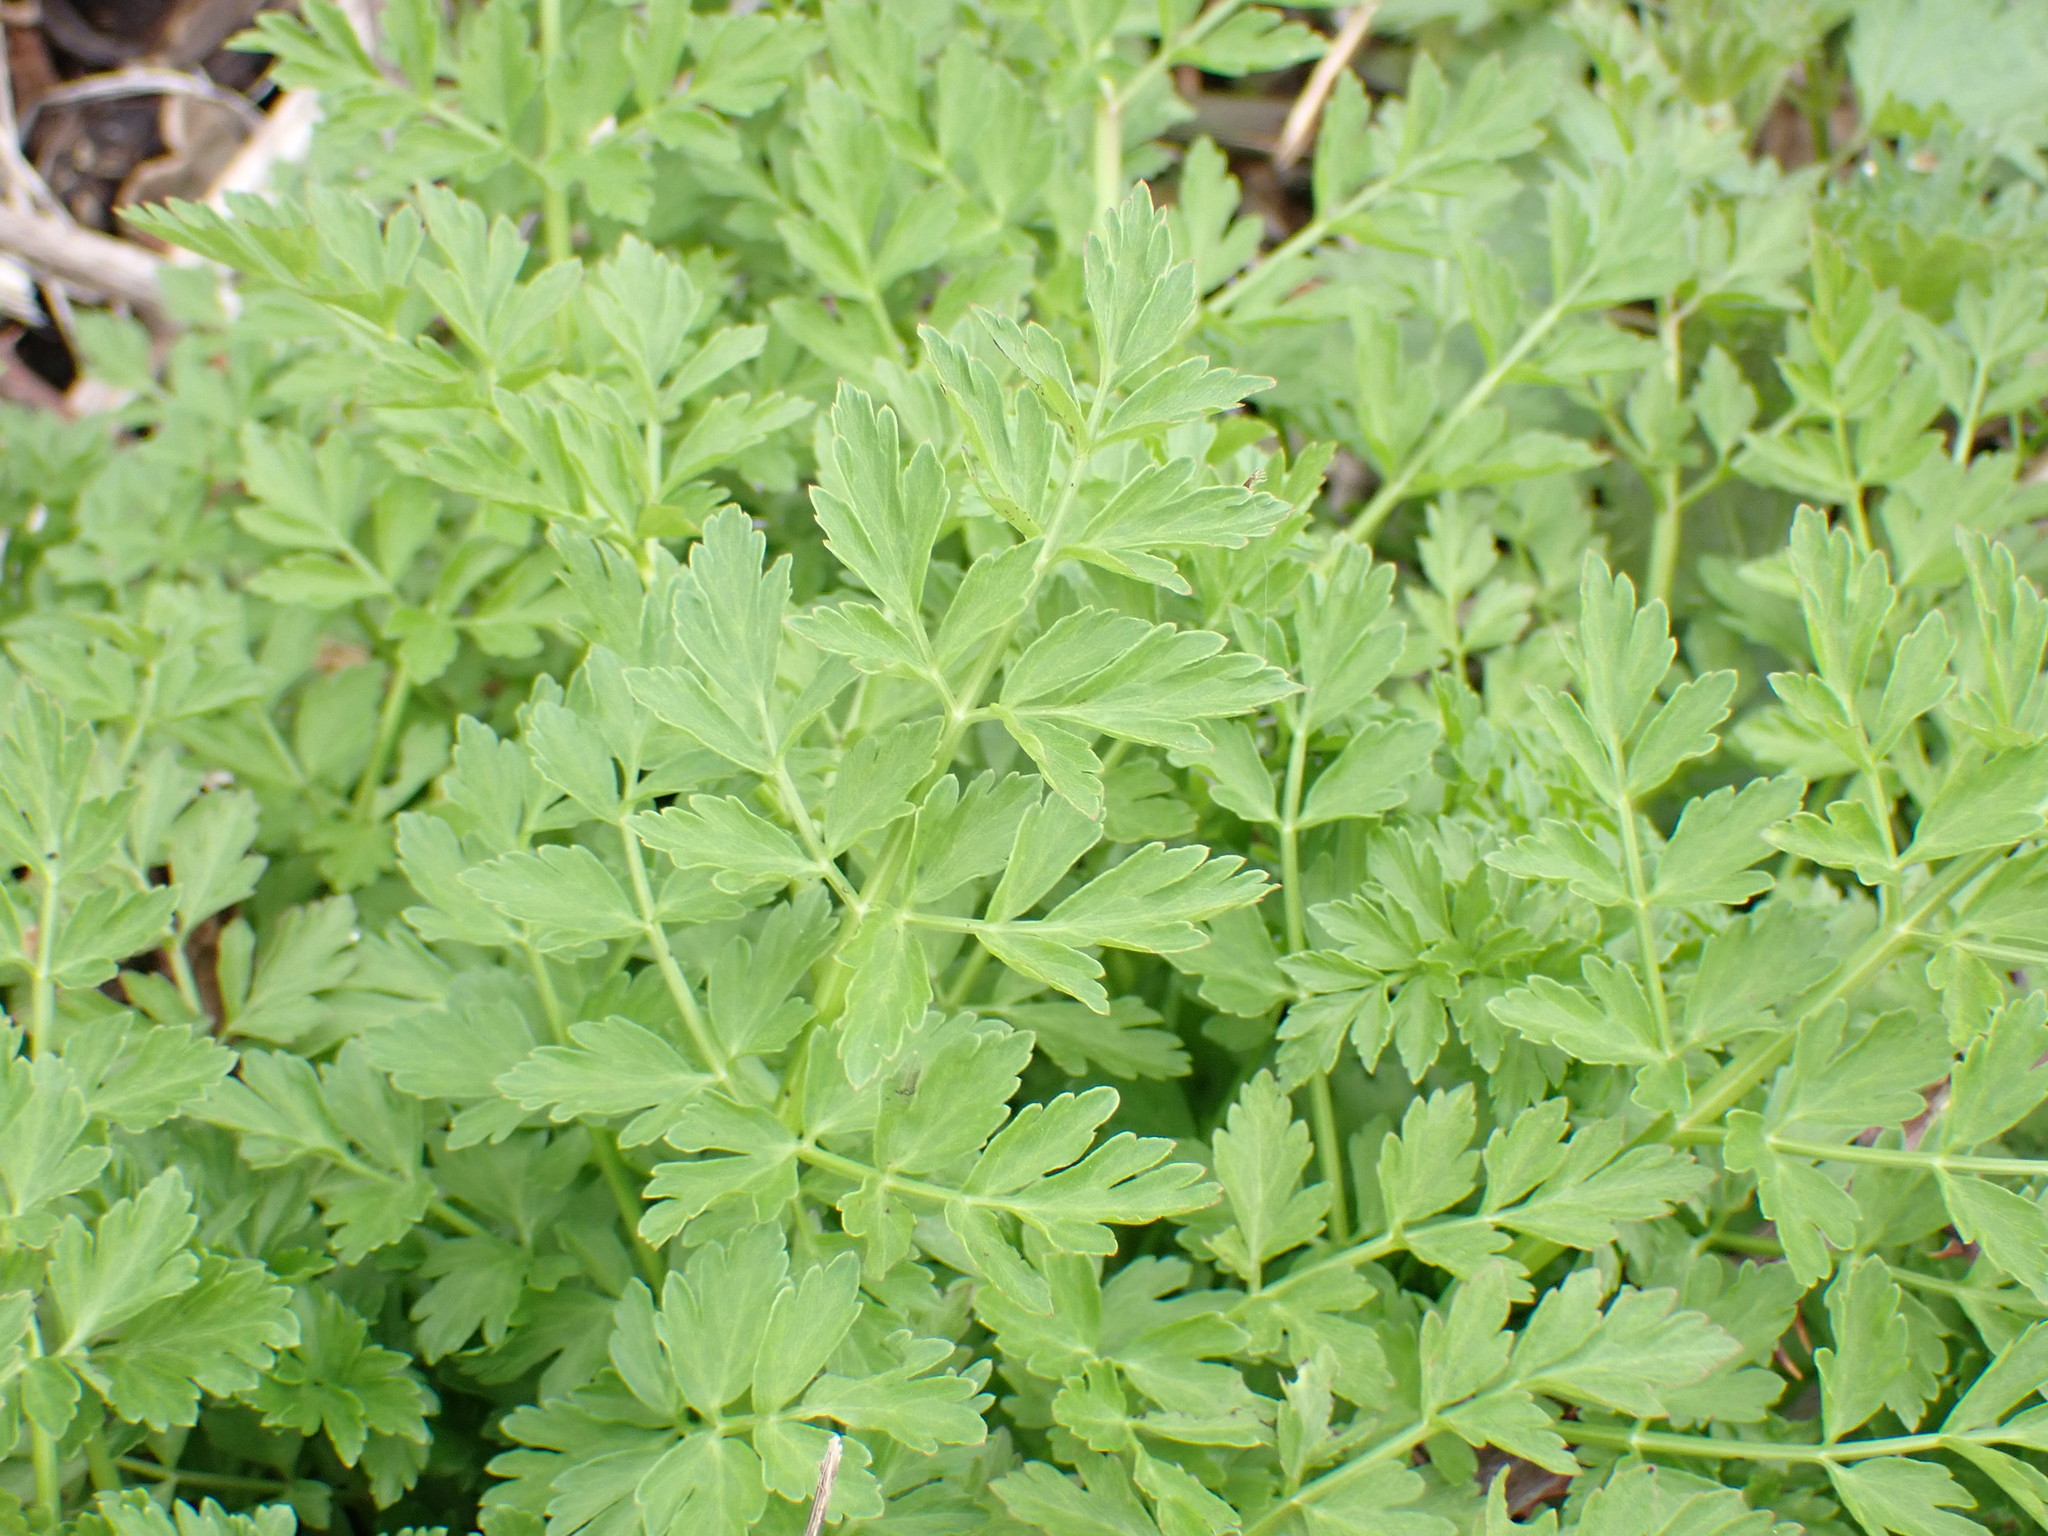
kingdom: Plantae
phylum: Tracheophyta
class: Magnoliopsida
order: Apiales
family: Apiaceae
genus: Oenanthe
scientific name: Oenanthe crocata
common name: Hemlock water-dropwort
